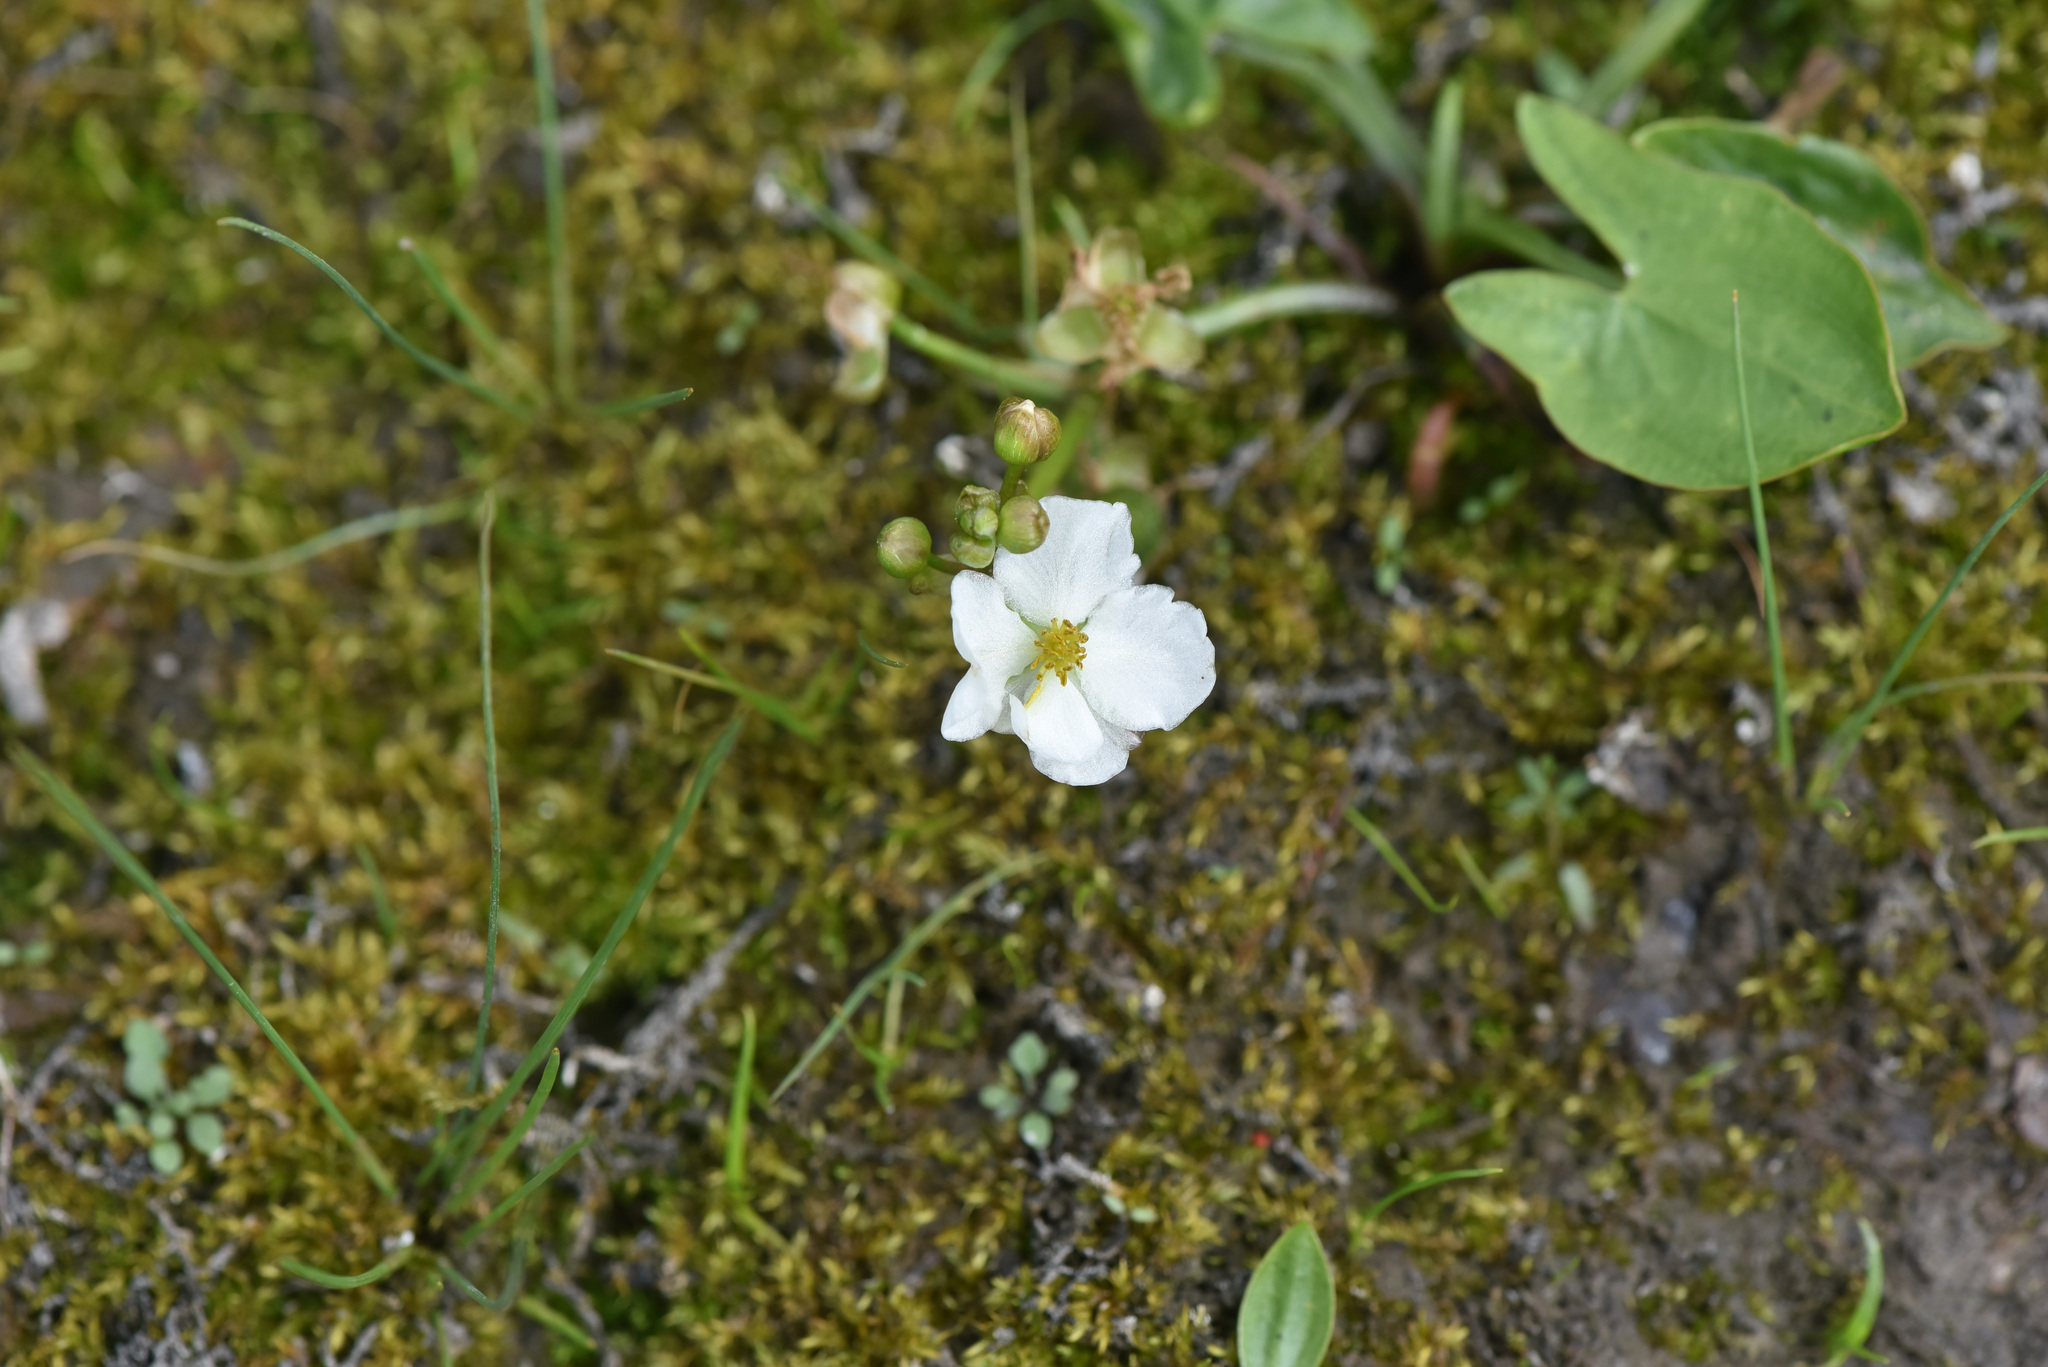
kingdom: Plantae
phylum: Tracheophyta
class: Liliopsida
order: Alismatales
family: Alismataceae
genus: Sagittaria
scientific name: Sagittaria cuneata
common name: Northern arrowhead
